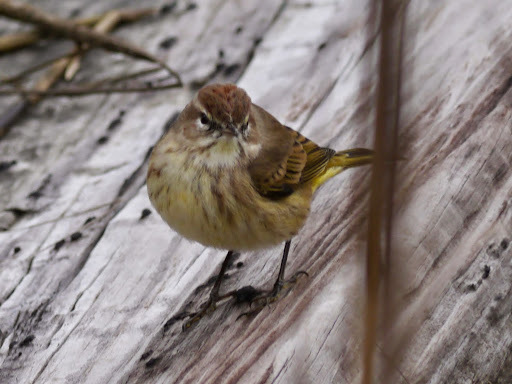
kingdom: Animalia
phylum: Chordata
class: Aves
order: Passeriformes
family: Parulidae
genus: Setophaga
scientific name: Setophaga palmarum
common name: Palm warbler
